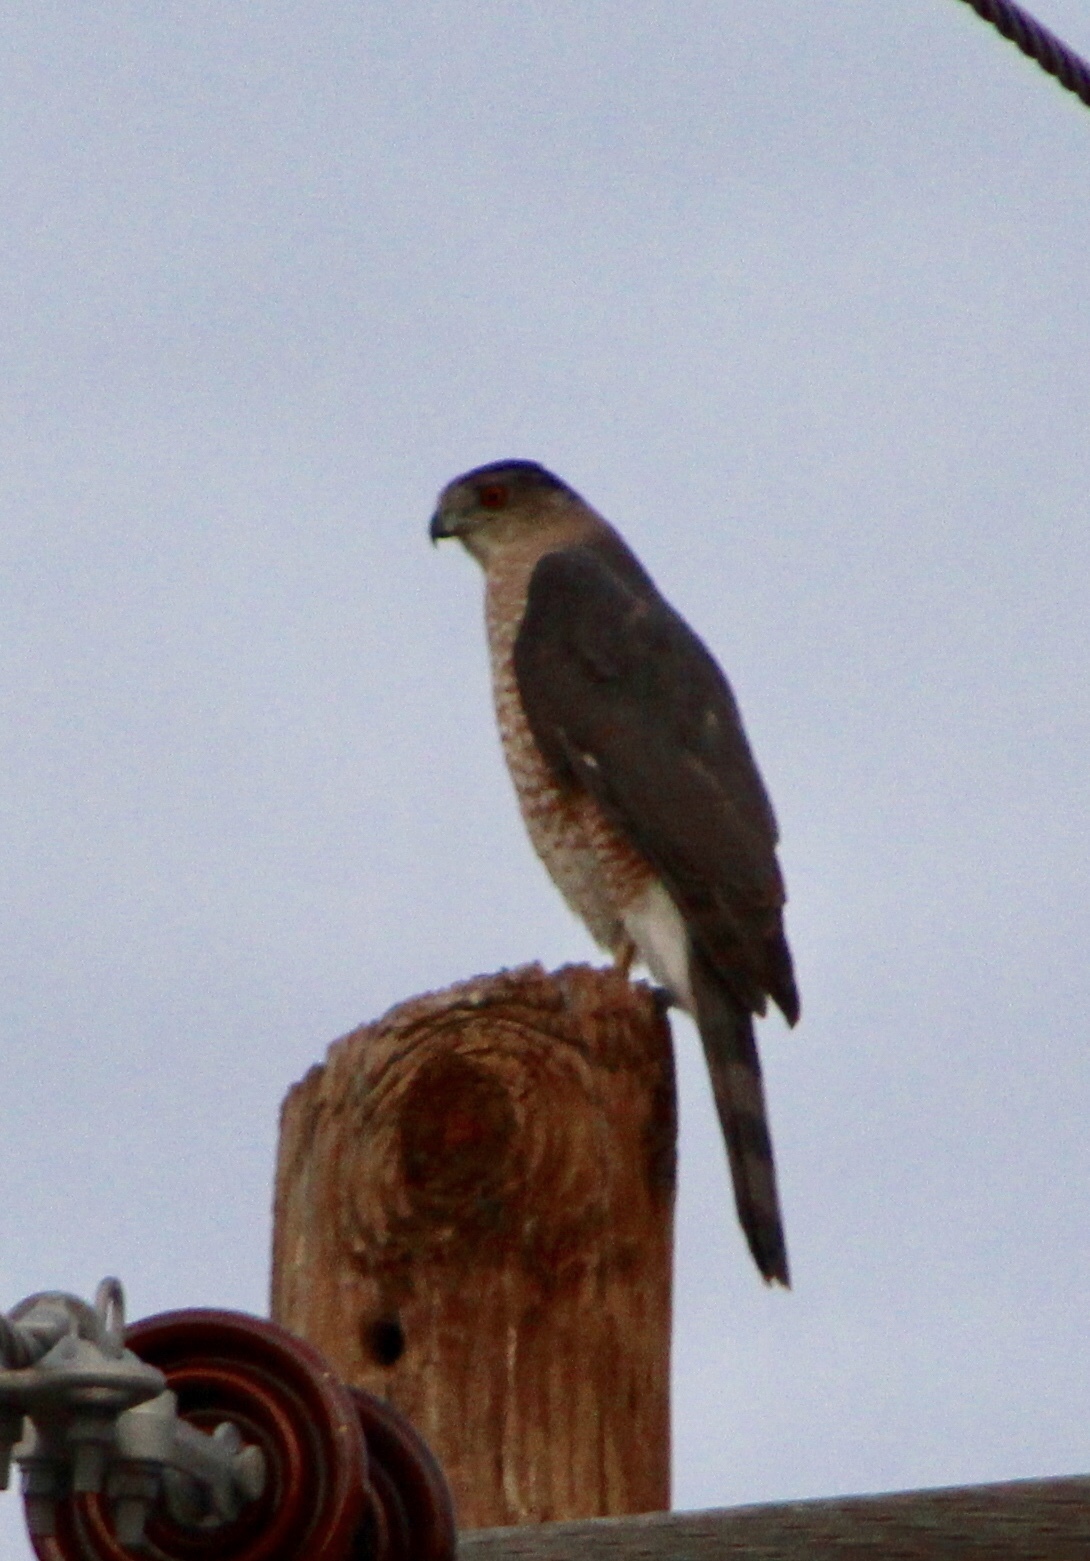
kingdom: Animalia
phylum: Chordata
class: Aves
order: Accipitriformes
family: Accipitridae
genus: Accipiter
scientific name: Accipiter cooperii
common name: Cooper's hawk
